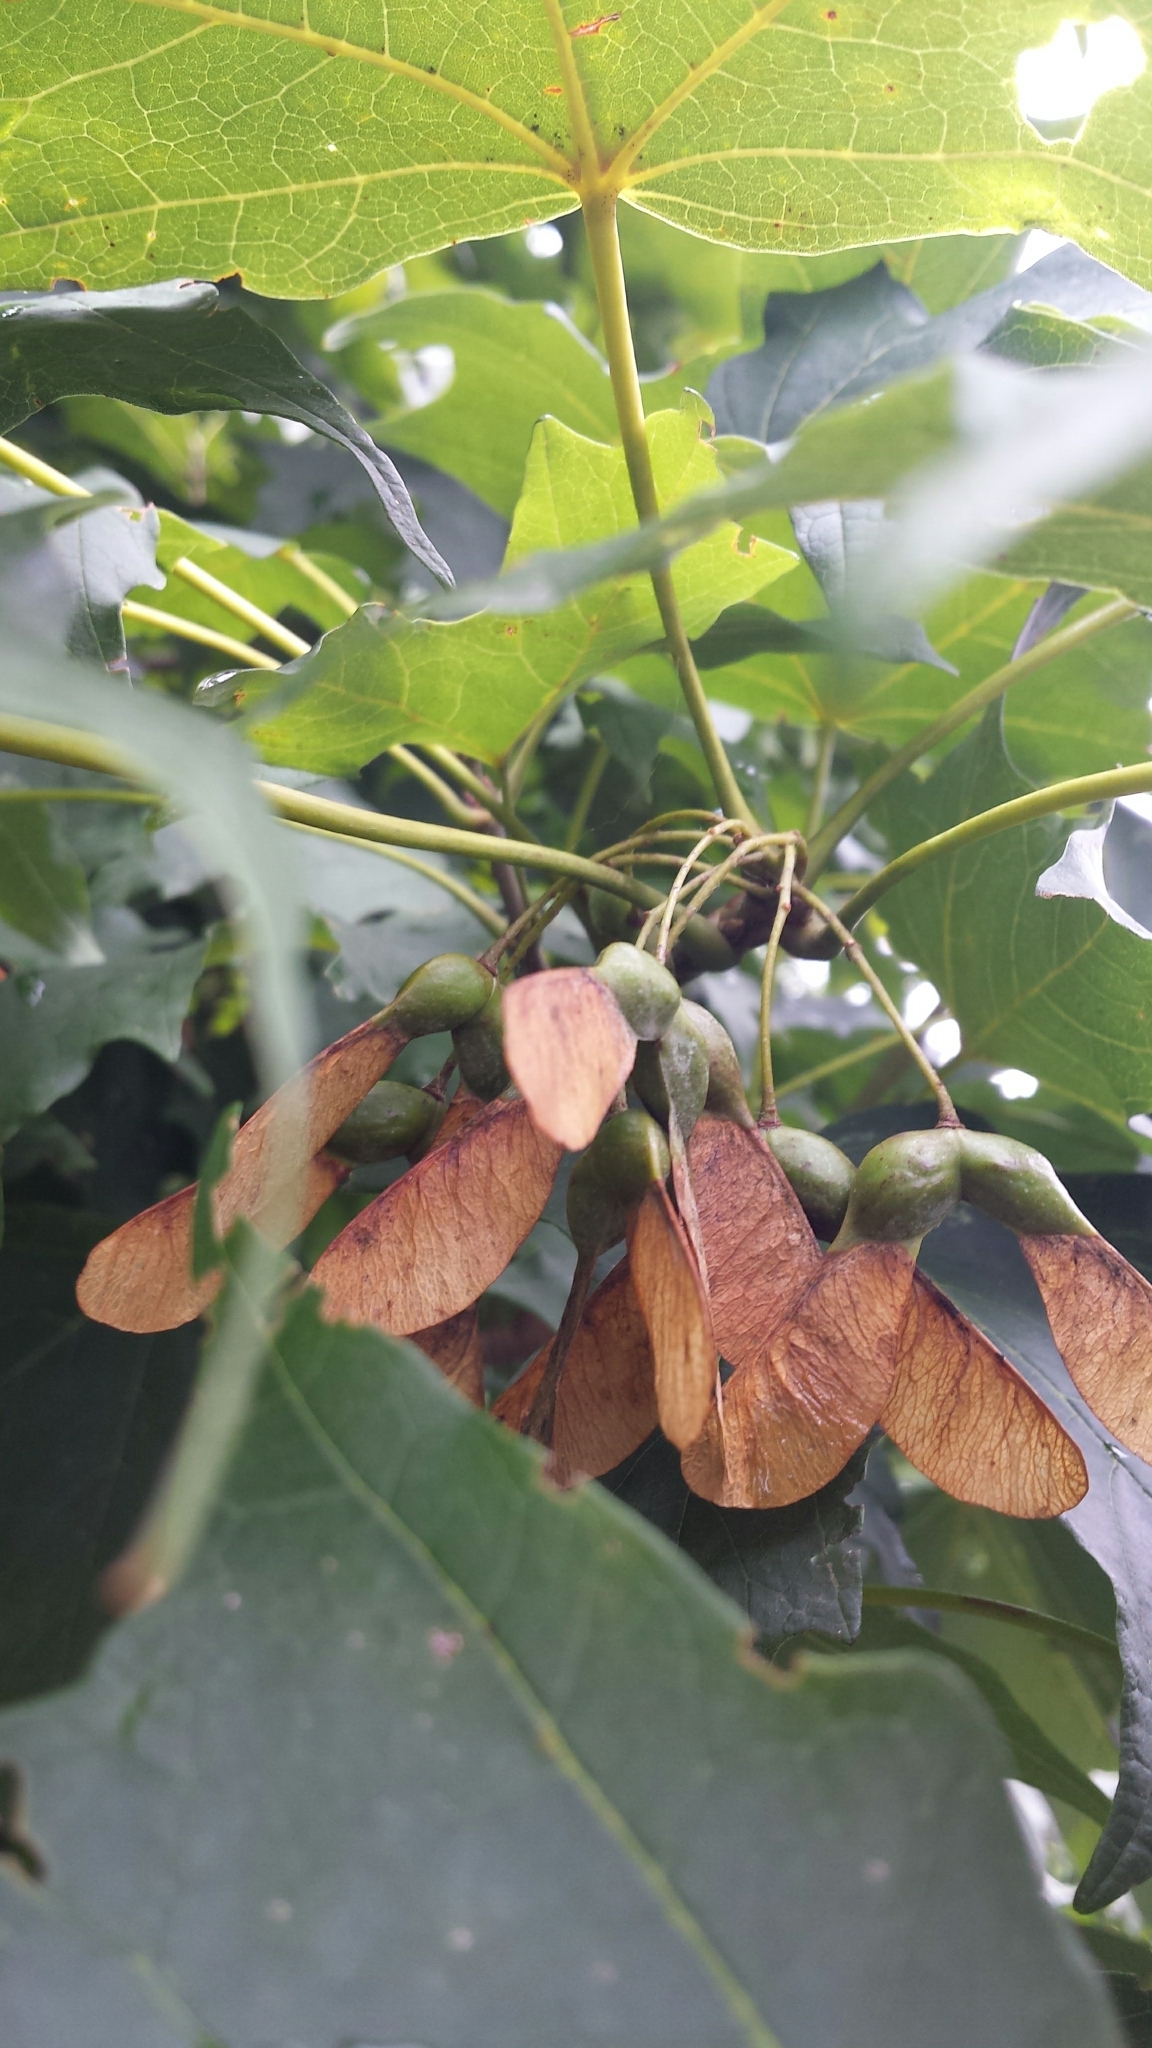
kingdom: Plantae
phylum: Tracheophyta
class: Magnoliopsida
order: Sapindales
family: Sapindaceae
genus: Acer
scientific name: Acer saccharum
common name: Sugar maple
